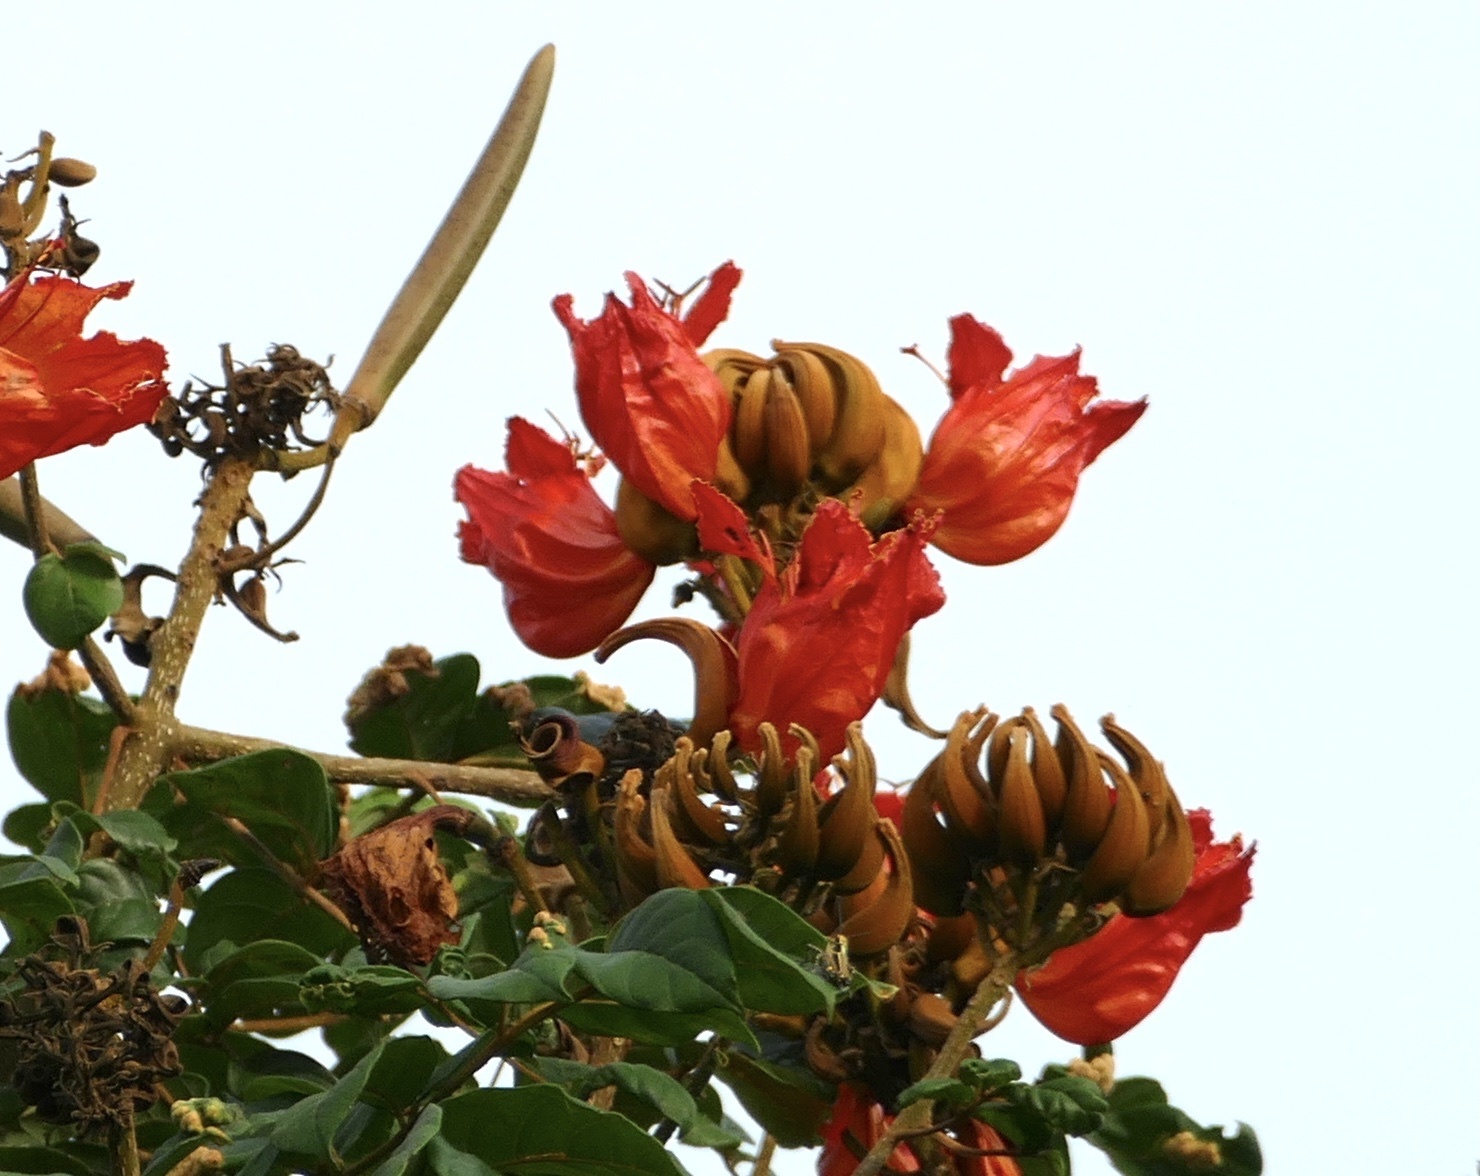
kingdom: Plantae
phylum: Tracheophyta
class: Magnoliopsida
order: Lamiales
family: Bignoniaceae
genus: Spathodea
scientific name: Spathodea campanulata
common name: African tuliptree
